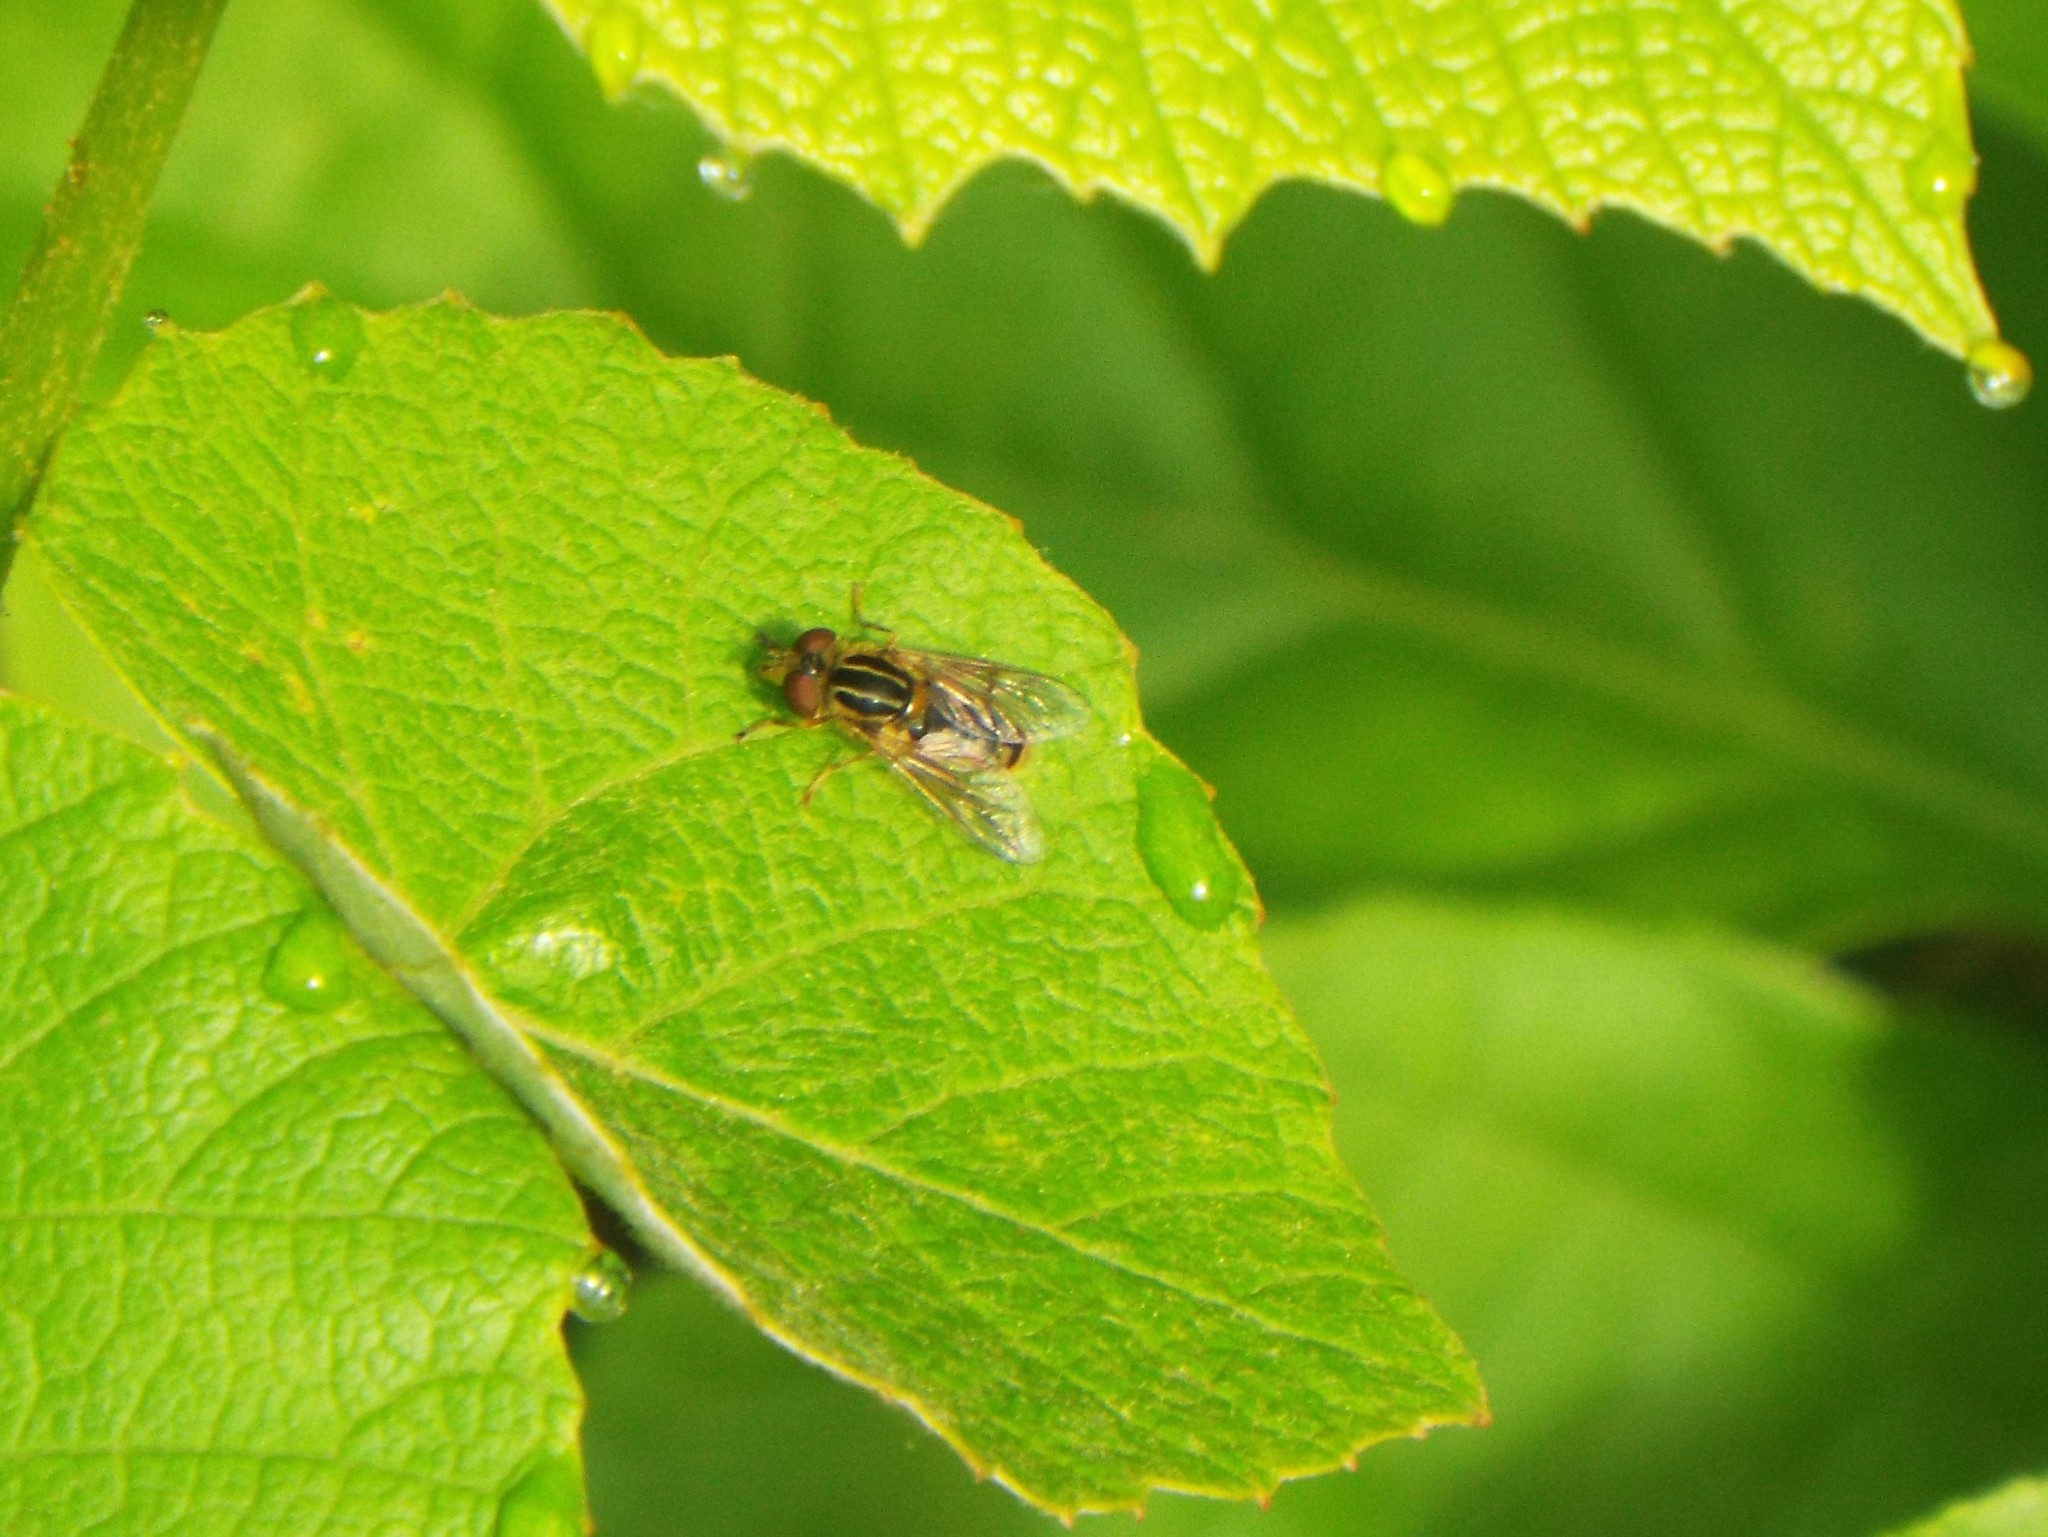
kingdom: Animalia
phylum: Arthropoda
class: Insecta
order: Diptera
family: Syrphidae
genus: Eurimyia
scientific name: Eurimyia stipatus
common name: Long-nosed swamp fly
